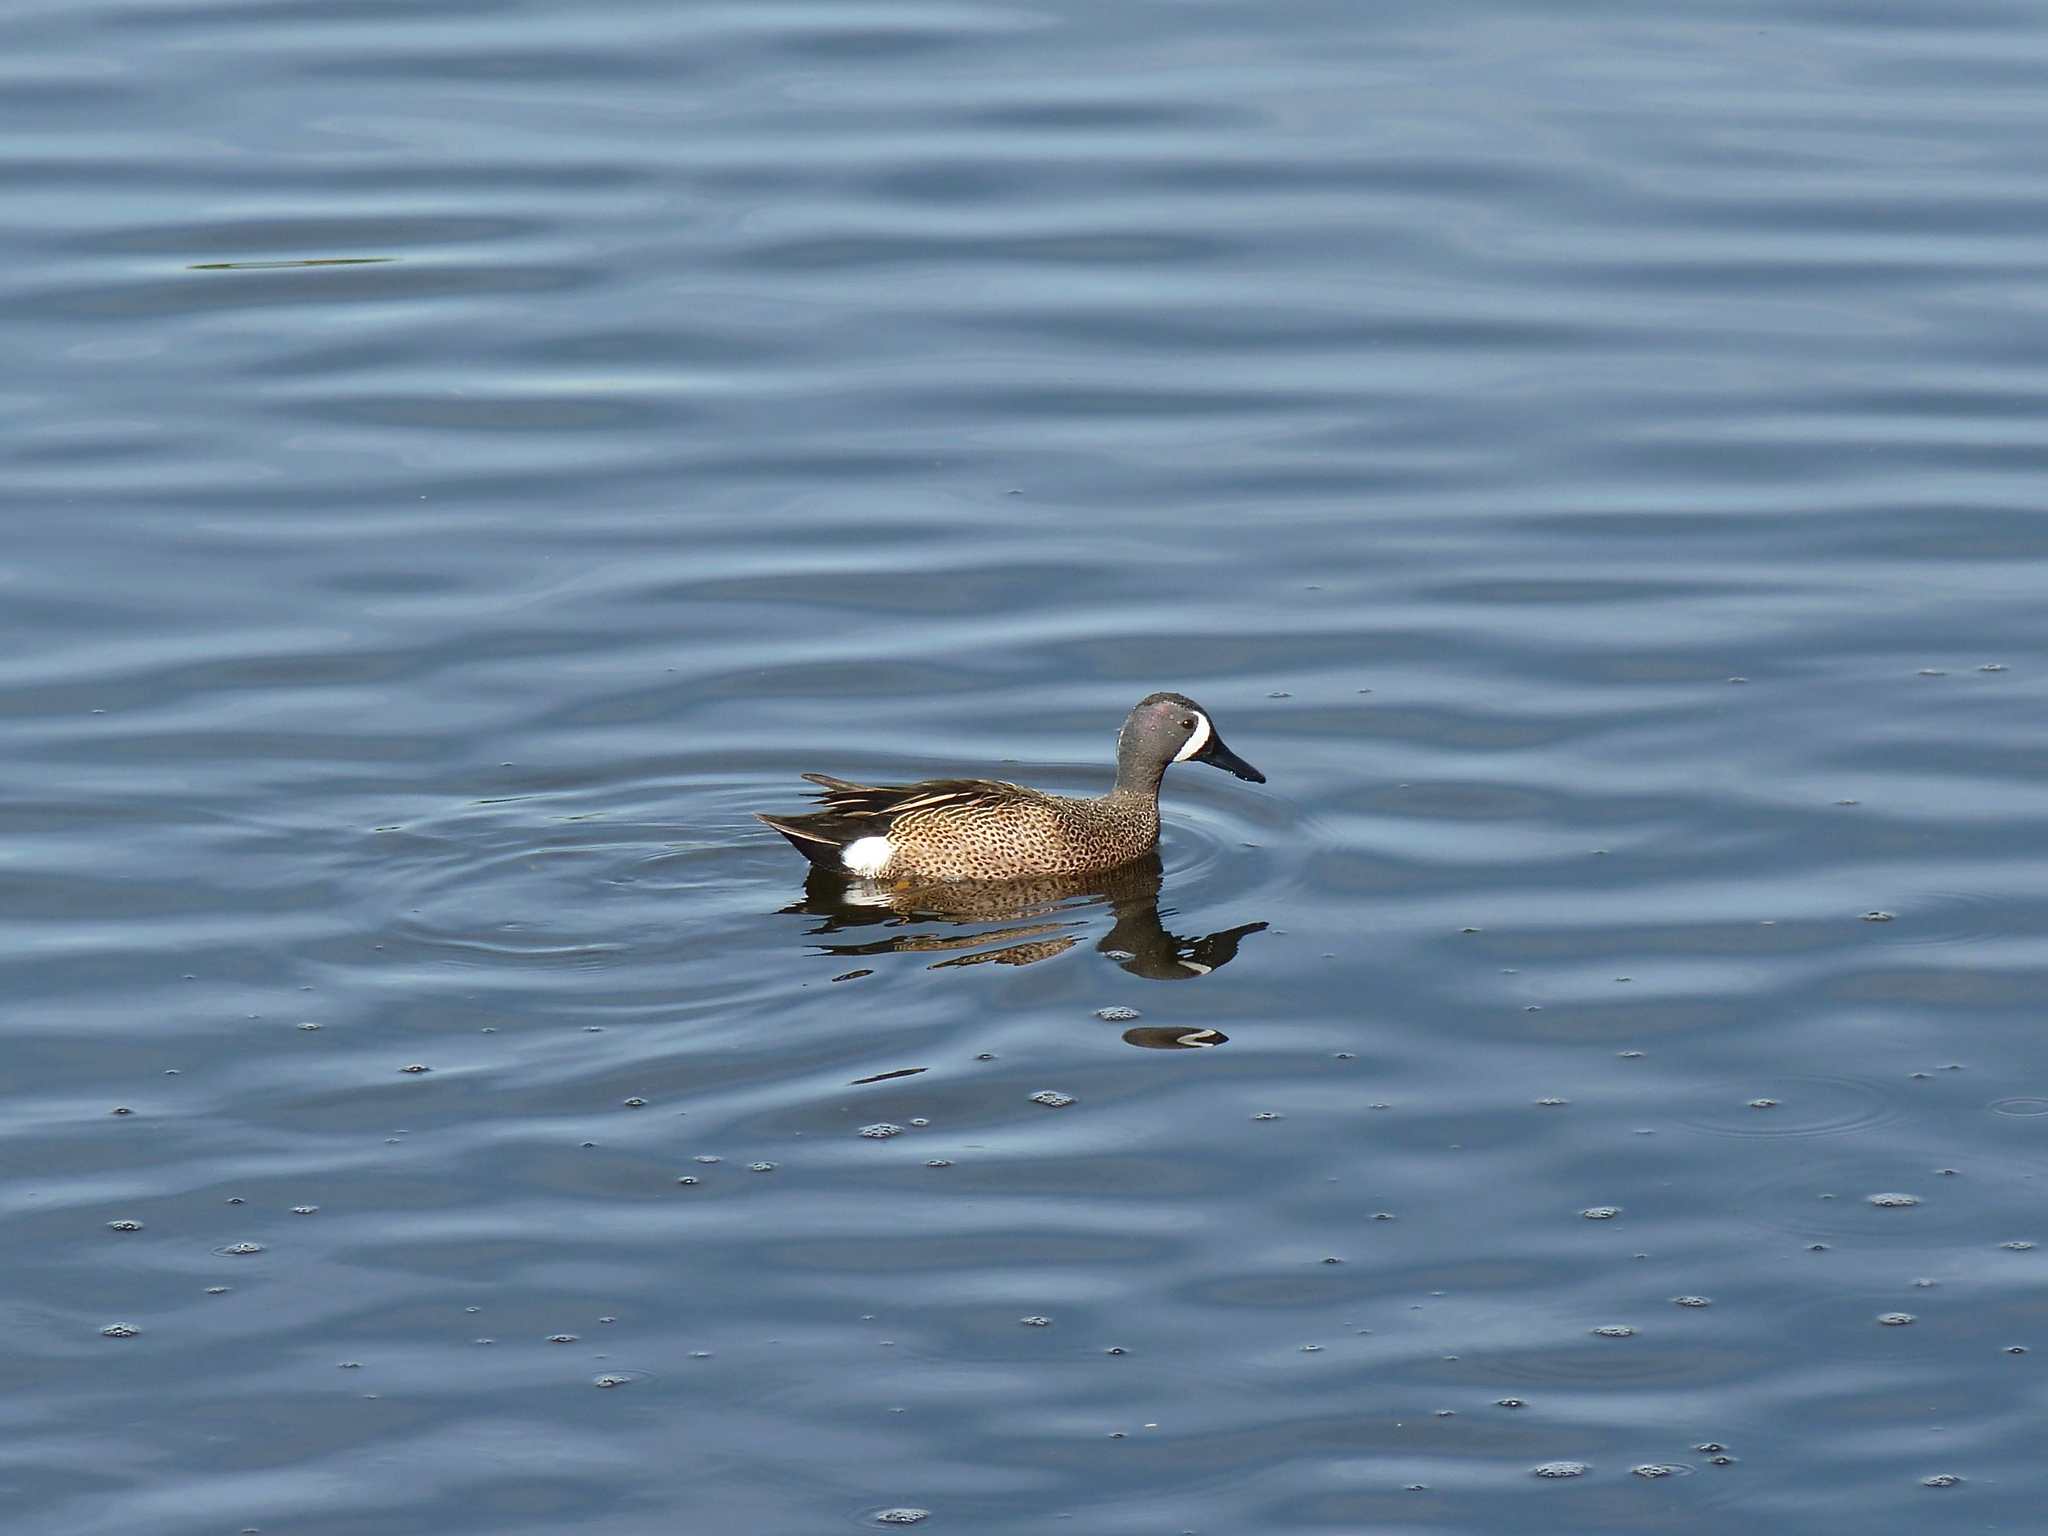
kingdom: Animalia
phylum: Chordata
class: Aves
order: Anseriformes
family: Anatidae
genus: Spatula
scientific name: Spatula discors
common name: Blue-winged teal
